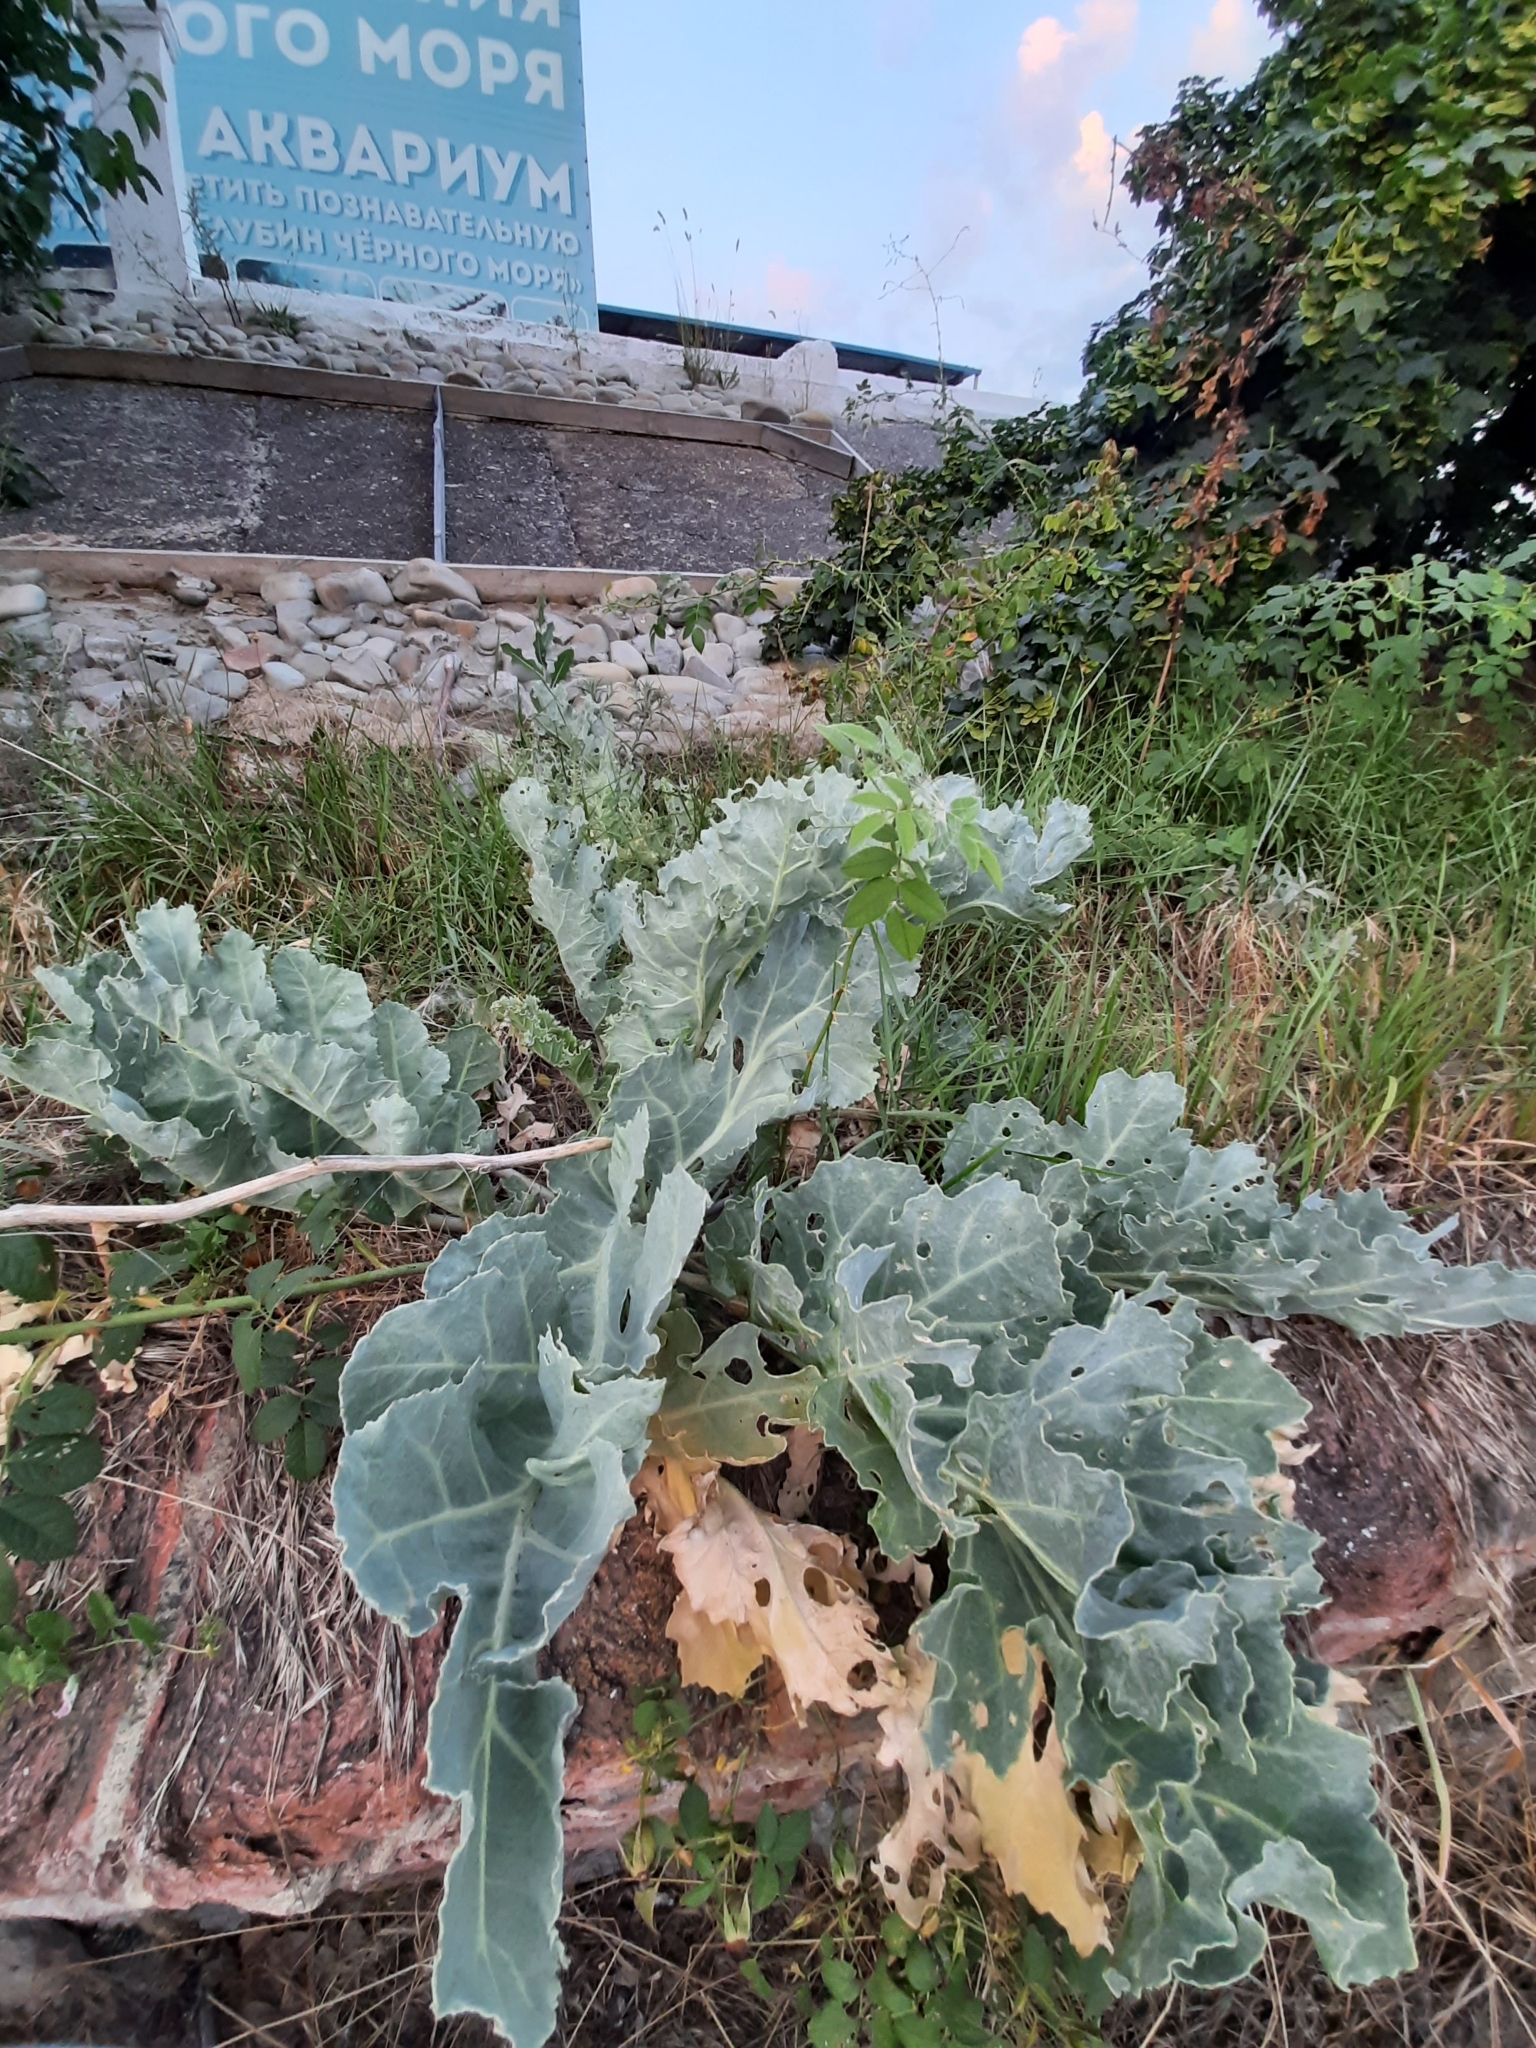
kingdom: Plantae
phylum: Tracheophyta
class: Magnoliopsida
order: Brassicales
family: Brassicaceae
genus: Crambe
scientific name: Crambe maritima
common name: Sea-kale
